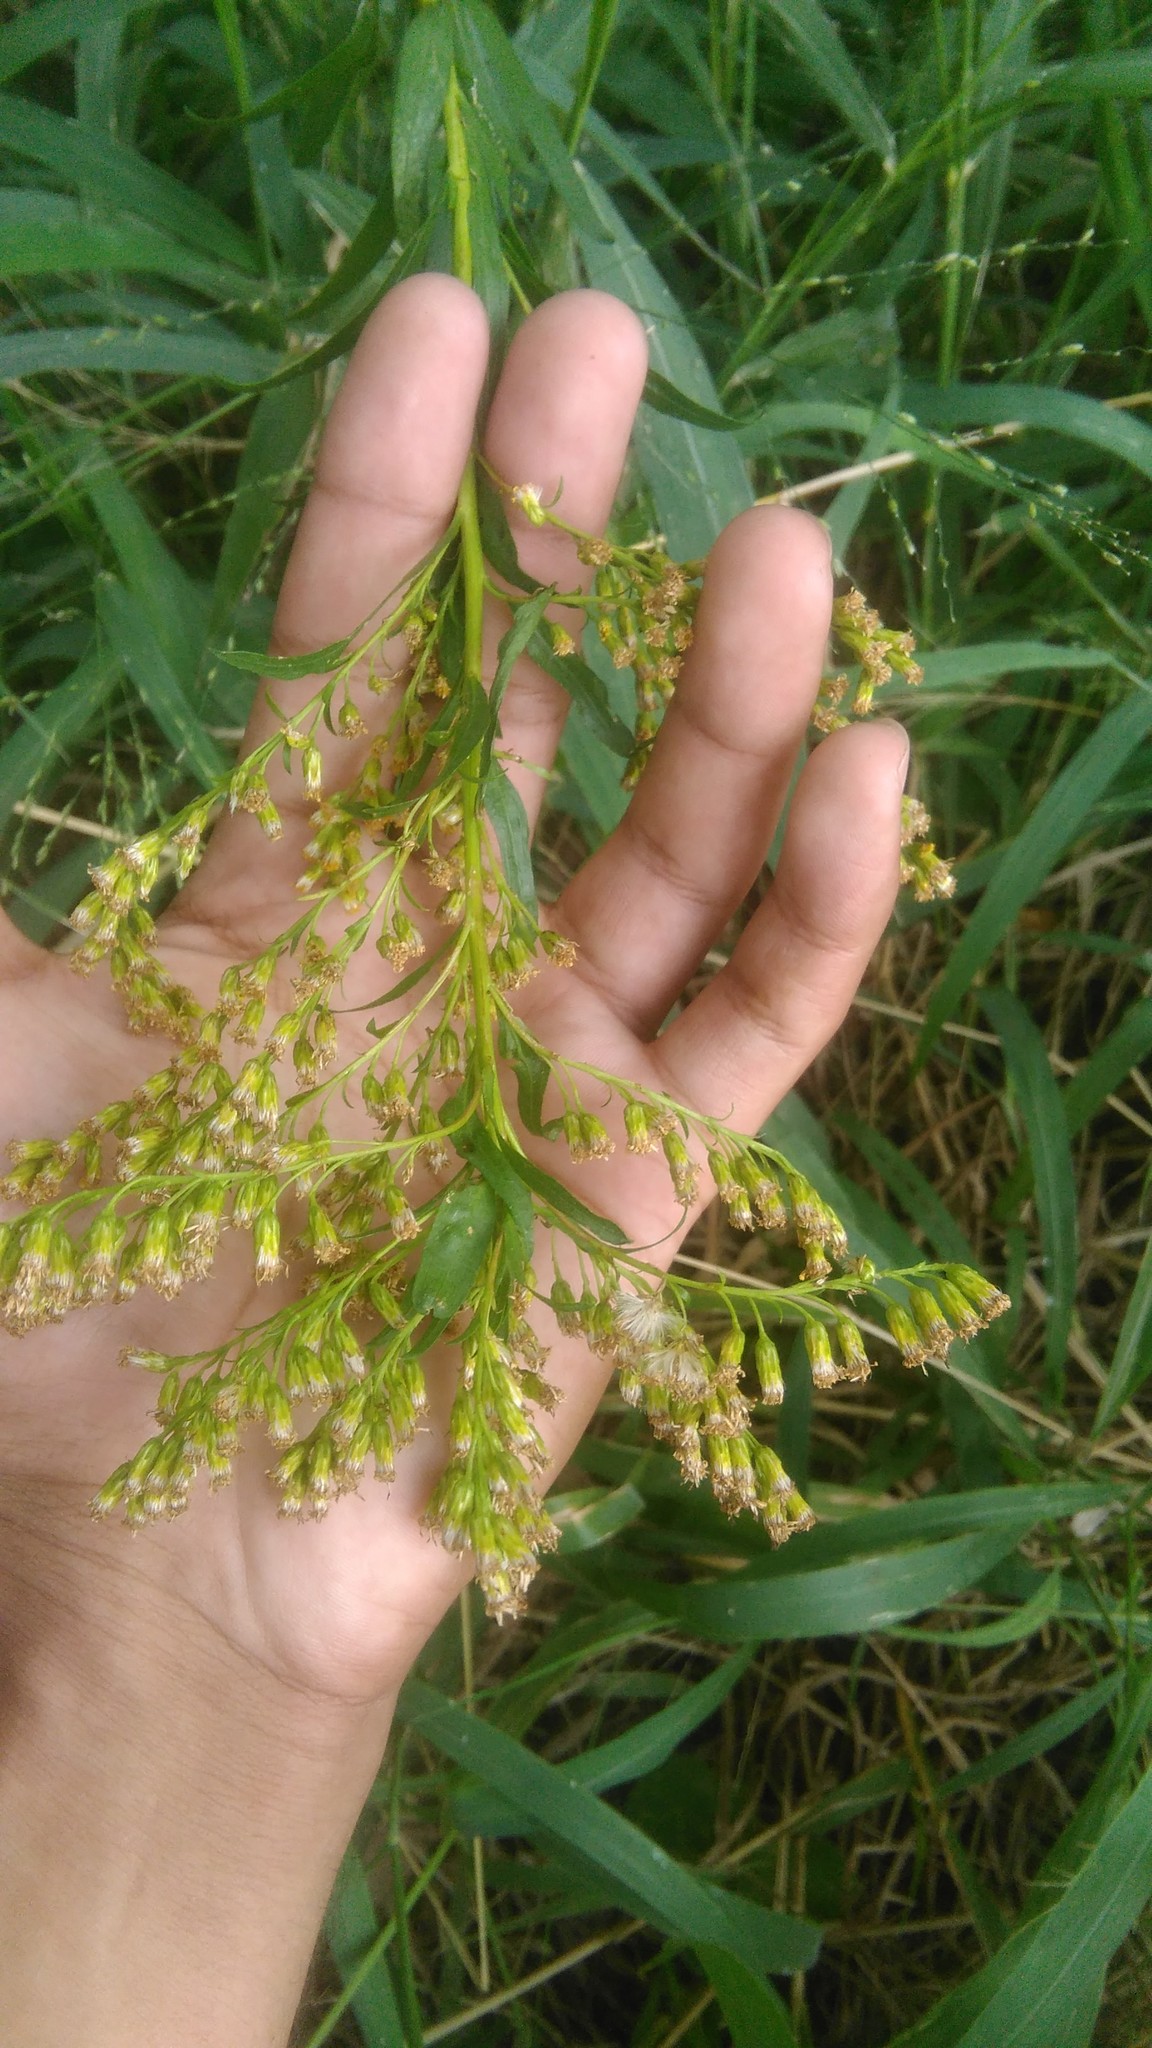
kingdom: Plantae
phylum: Tracheophyta
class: Magnoliopsida
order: Asterales
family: Asteraceae
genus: Solidago
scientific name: Solidago chilensis
